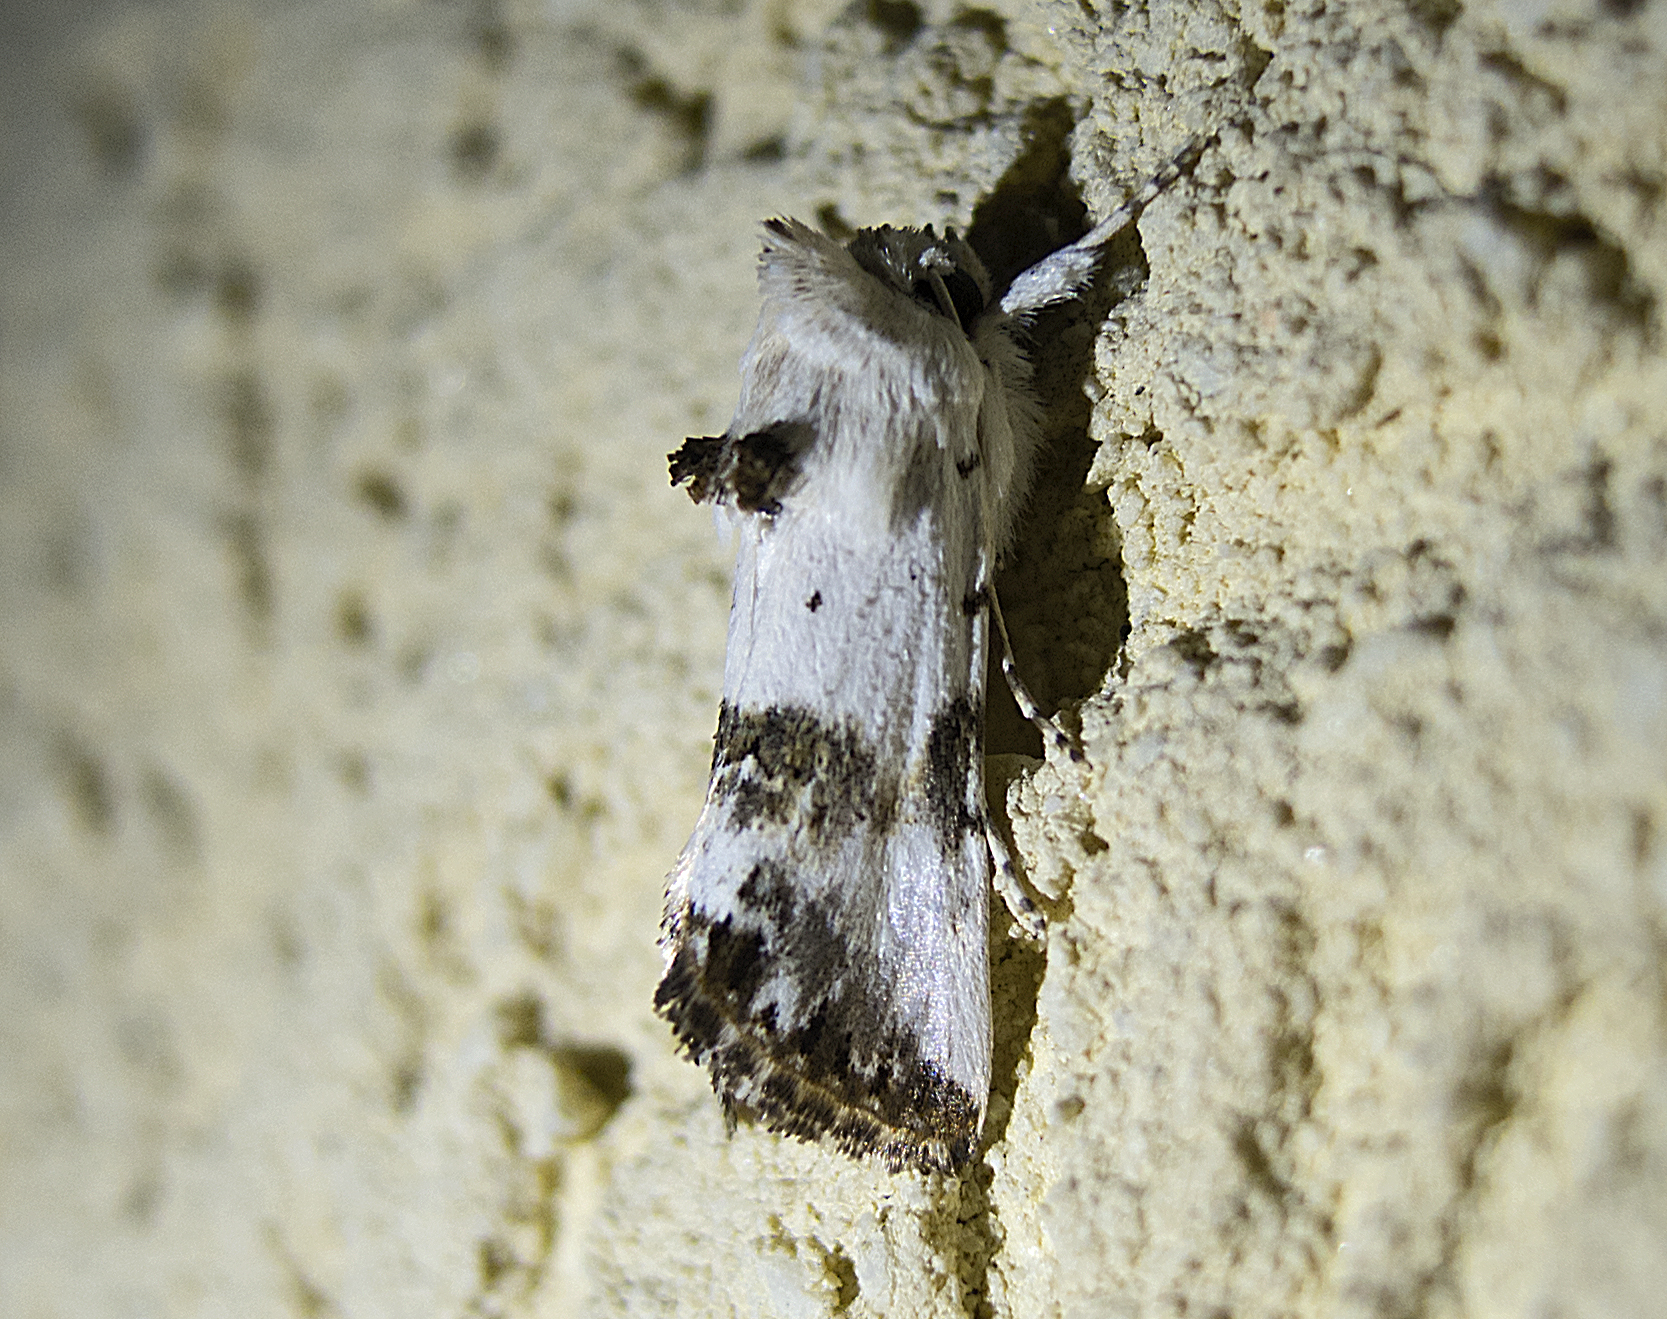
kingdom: Animalia
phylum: Arthropoda
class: Insecta
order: Lepidoptera
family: Noctuidae
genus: Calophasia
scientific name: Calophasia opalina
